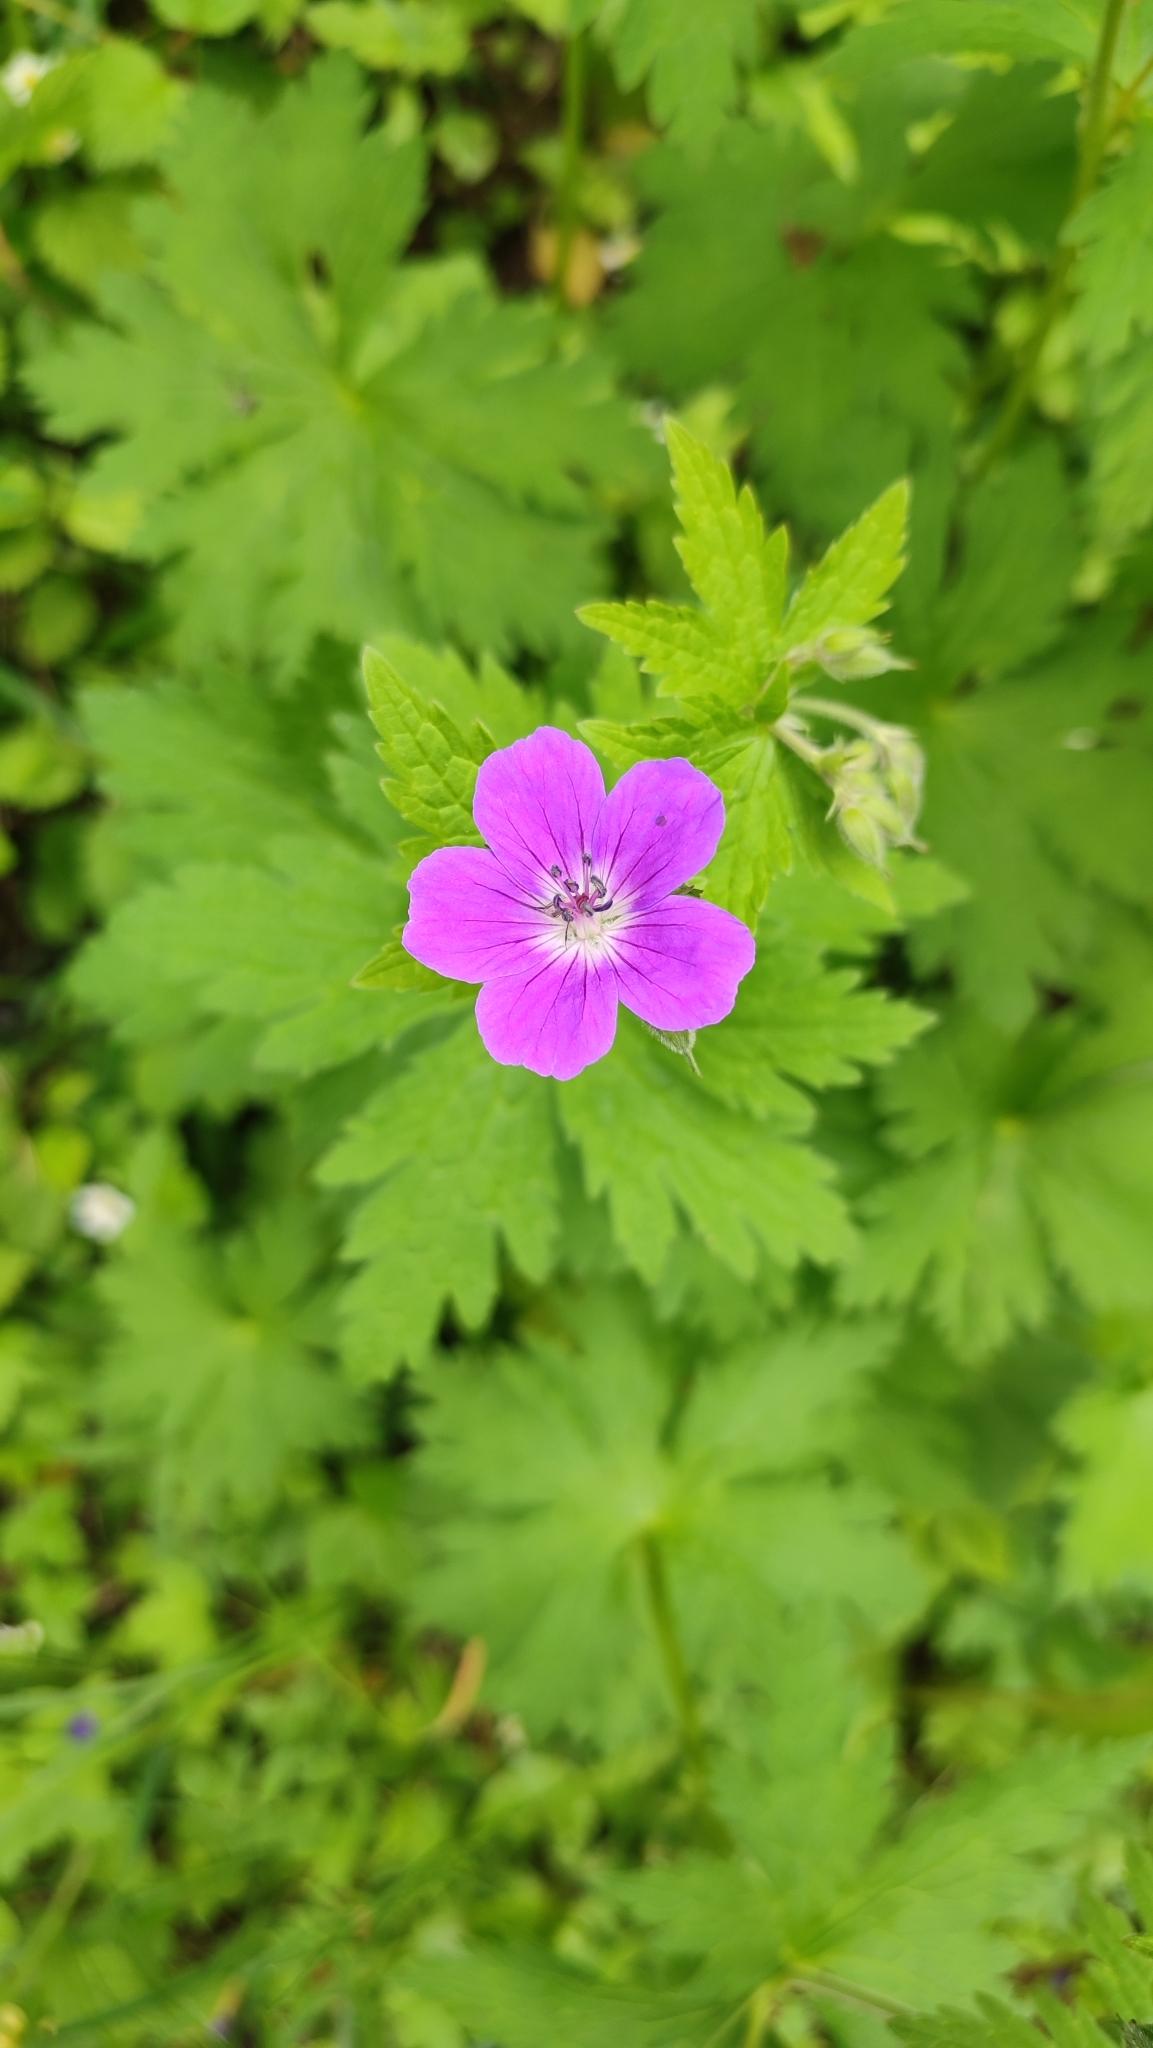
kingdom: Plantae
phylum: Tracheophyta
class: Magnoliopsida
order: Geraniales
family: Geraniaceae
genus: Geranium
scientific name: Geranium sylvaticum
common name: Wood crane's-bill
